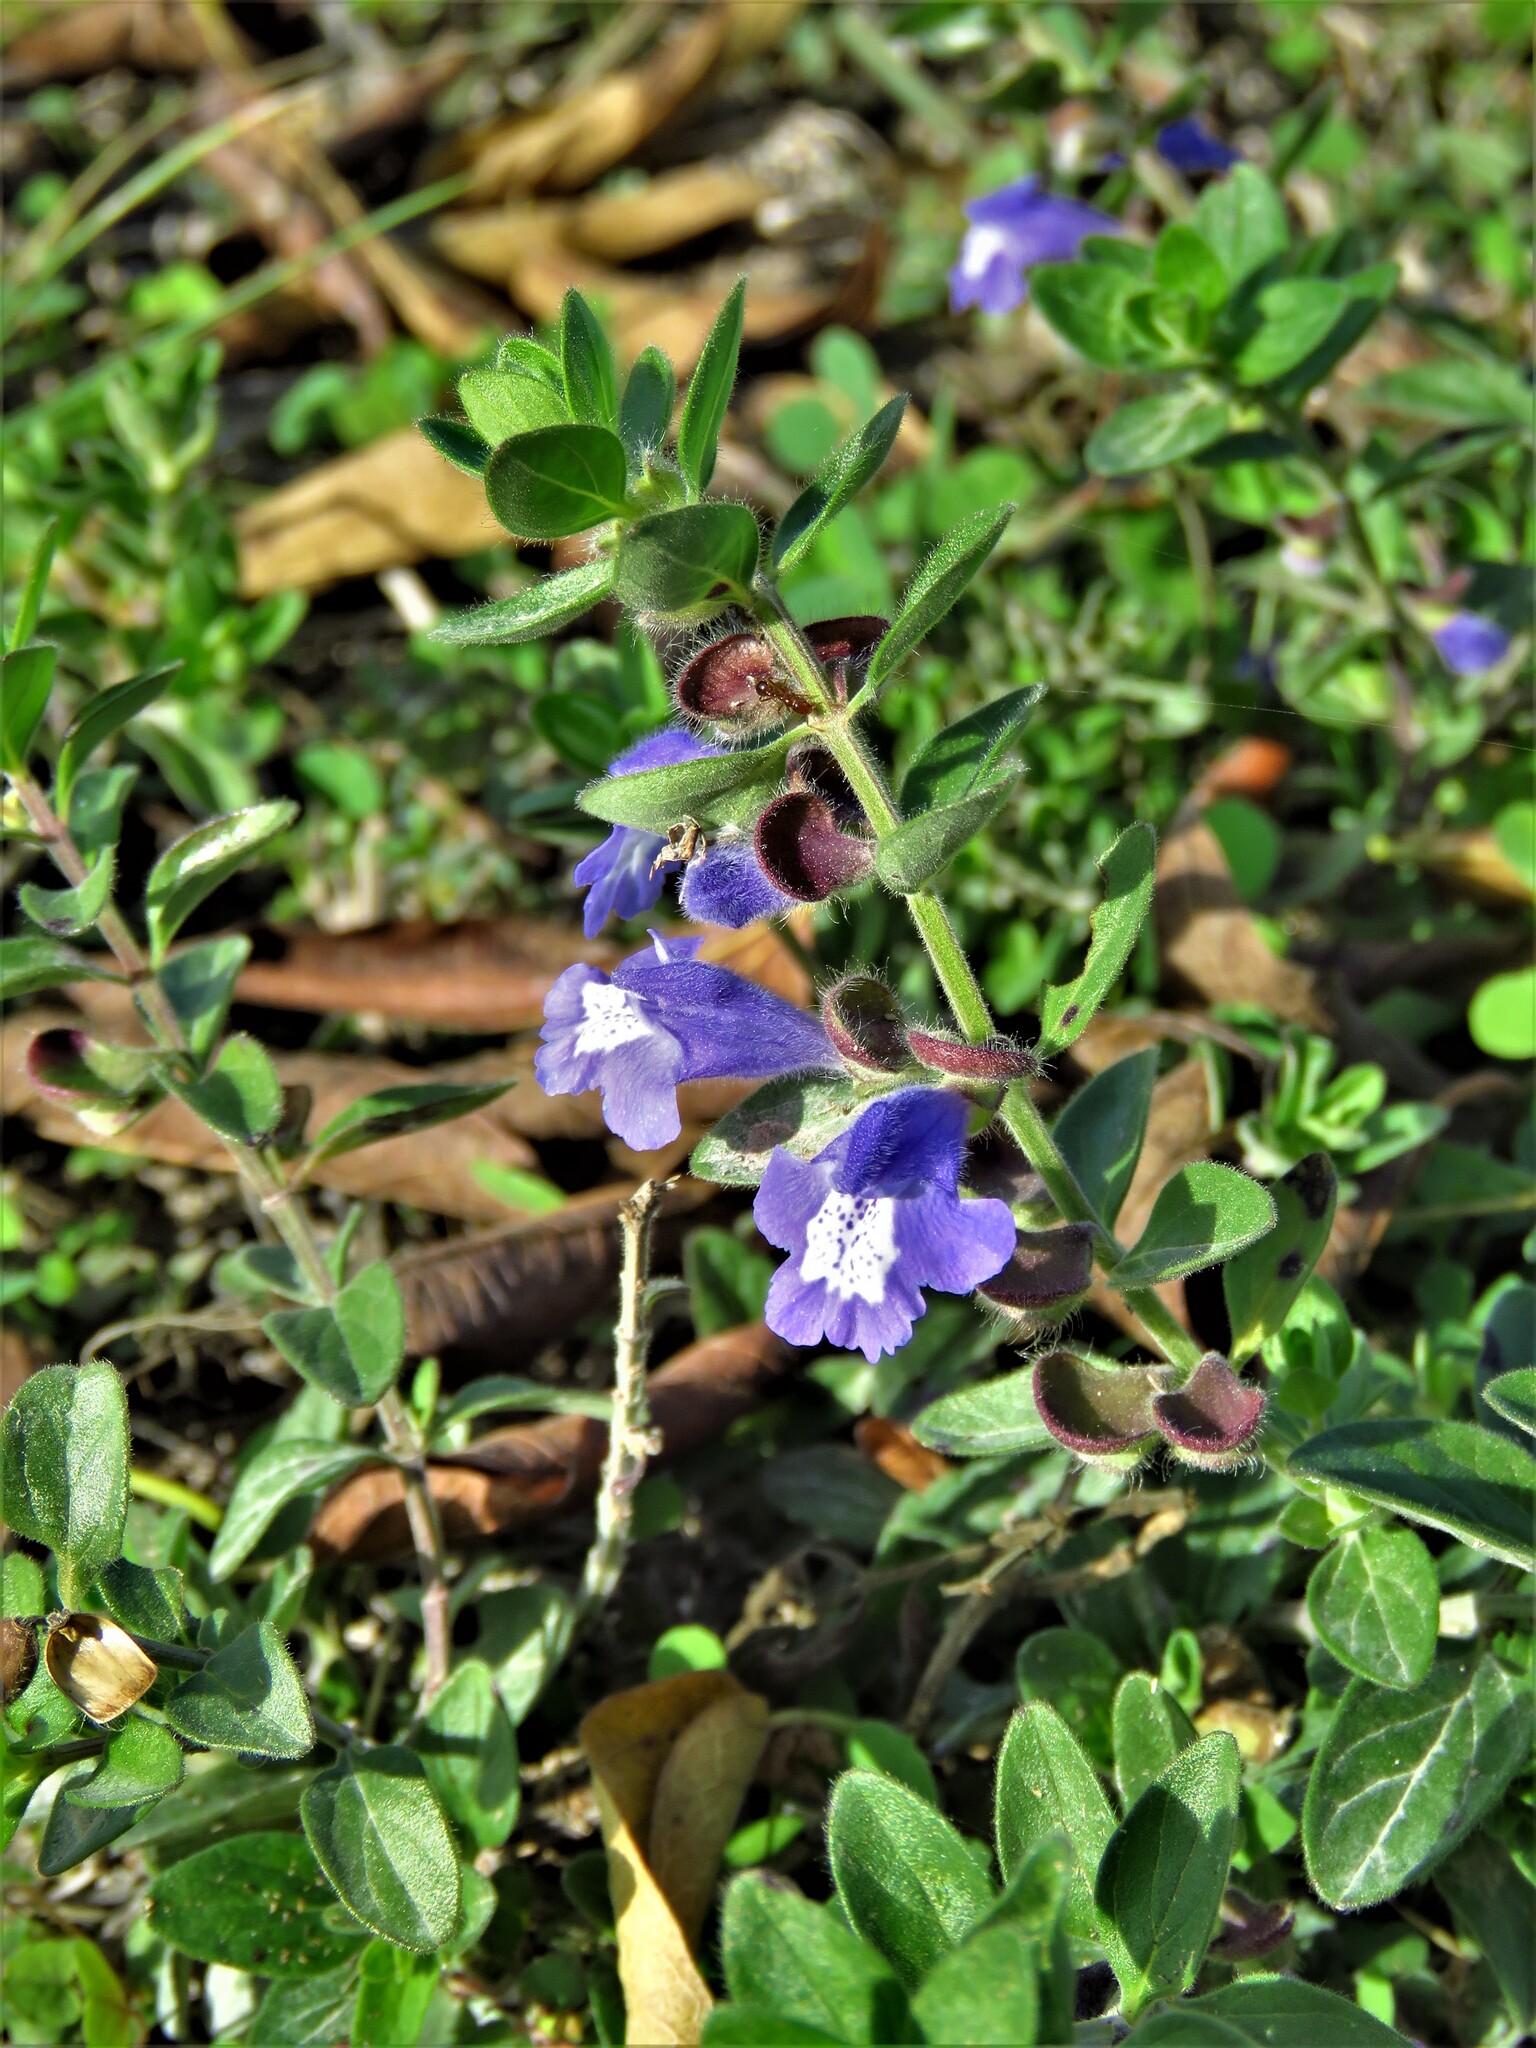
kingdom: Plantae
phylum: Tracheophyta
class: Magnoliopsida
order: Lamiales
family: Lamiaceae
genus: Scutellaria
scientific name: Scutellaria drummondii
